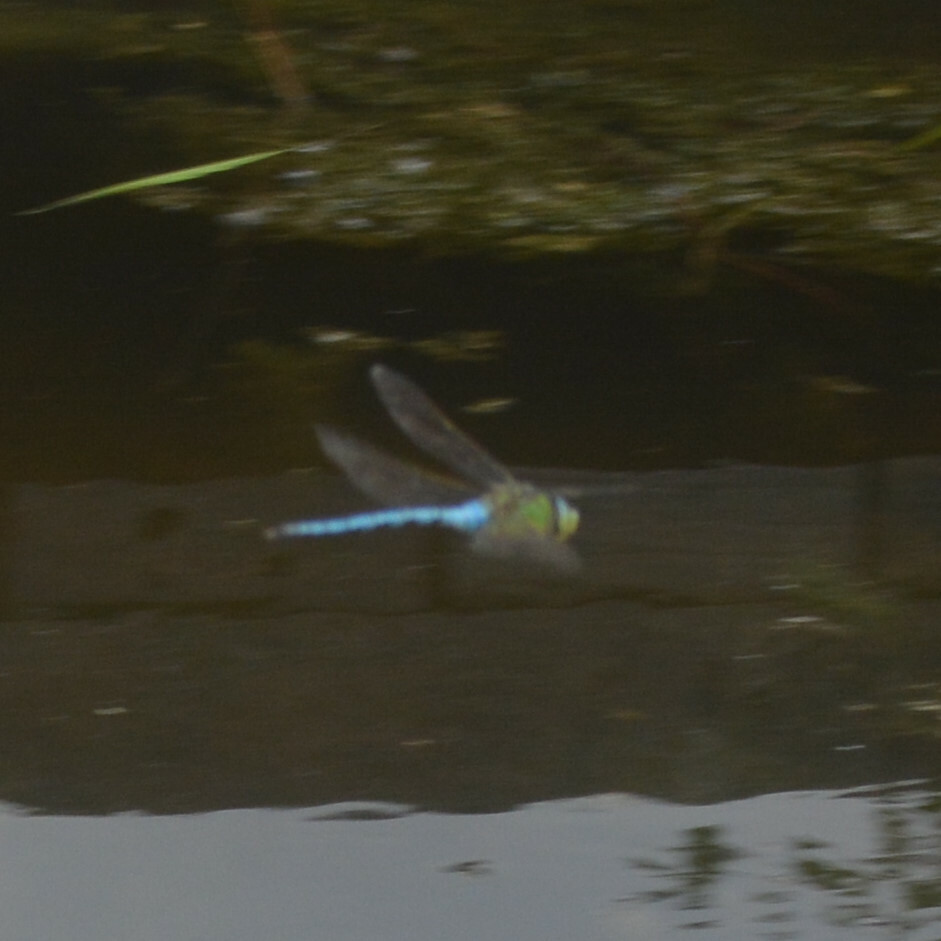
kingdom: Animalia
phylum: Arthropoda
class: Insecta
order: Odonata
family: Aeshnidae
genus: Anax
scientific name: Anax imperator
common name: Emperor dragonfly
